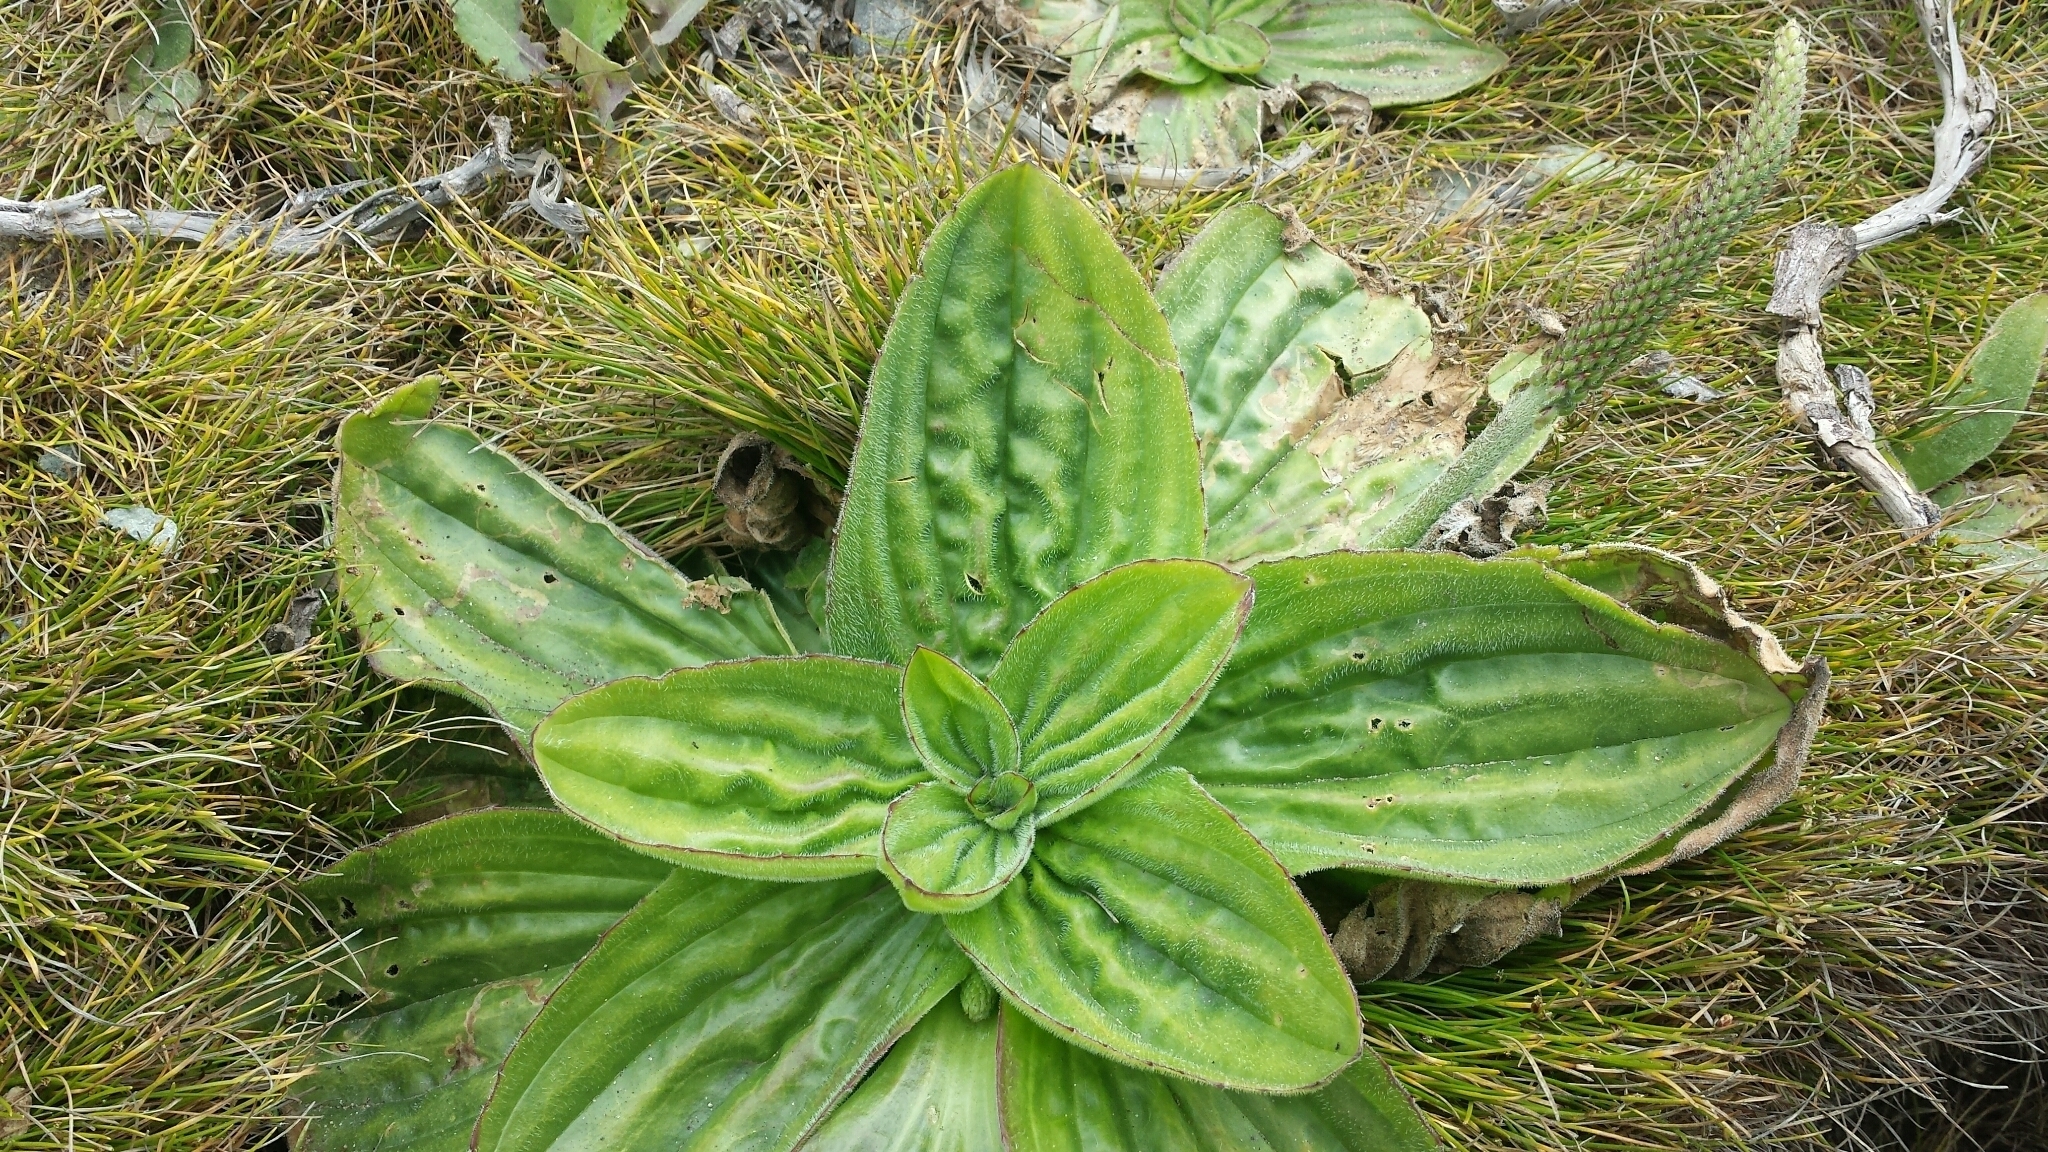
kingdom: Plantae
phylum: Tracheophyta
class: Magnoliopsida
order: Lamiales
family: Plantaginaceae
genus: Plantago
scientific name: Plantago major
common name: Common plantain
